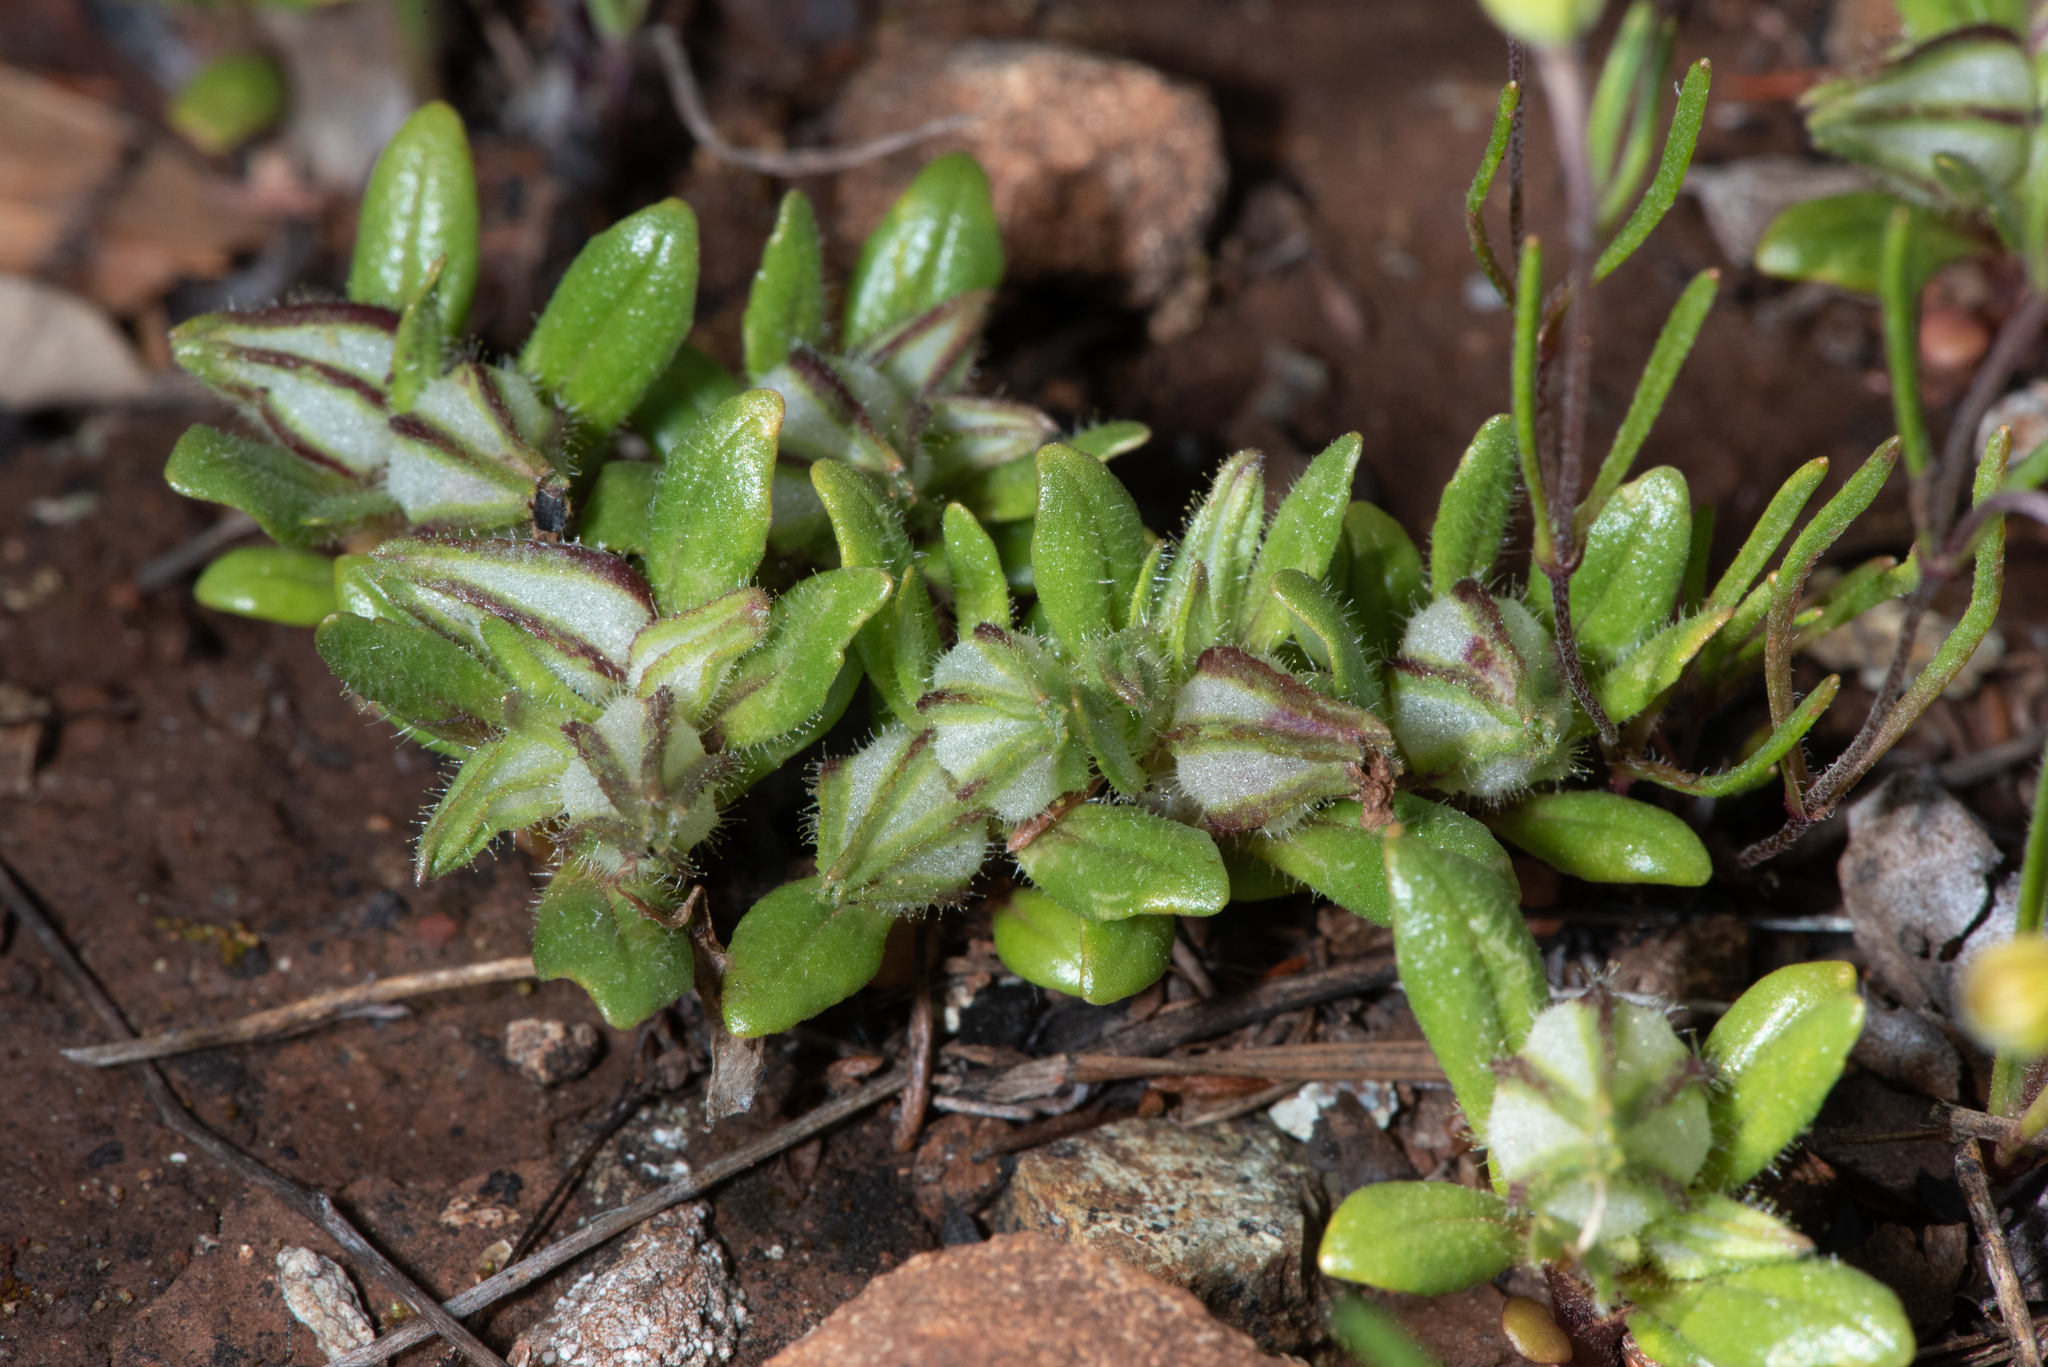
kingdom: Plantae
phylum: Tracheophyta
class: Magnoliopsida
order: Lamiales
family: Phrymaceae
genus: Diplacus
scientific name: Diplacus douglasii
